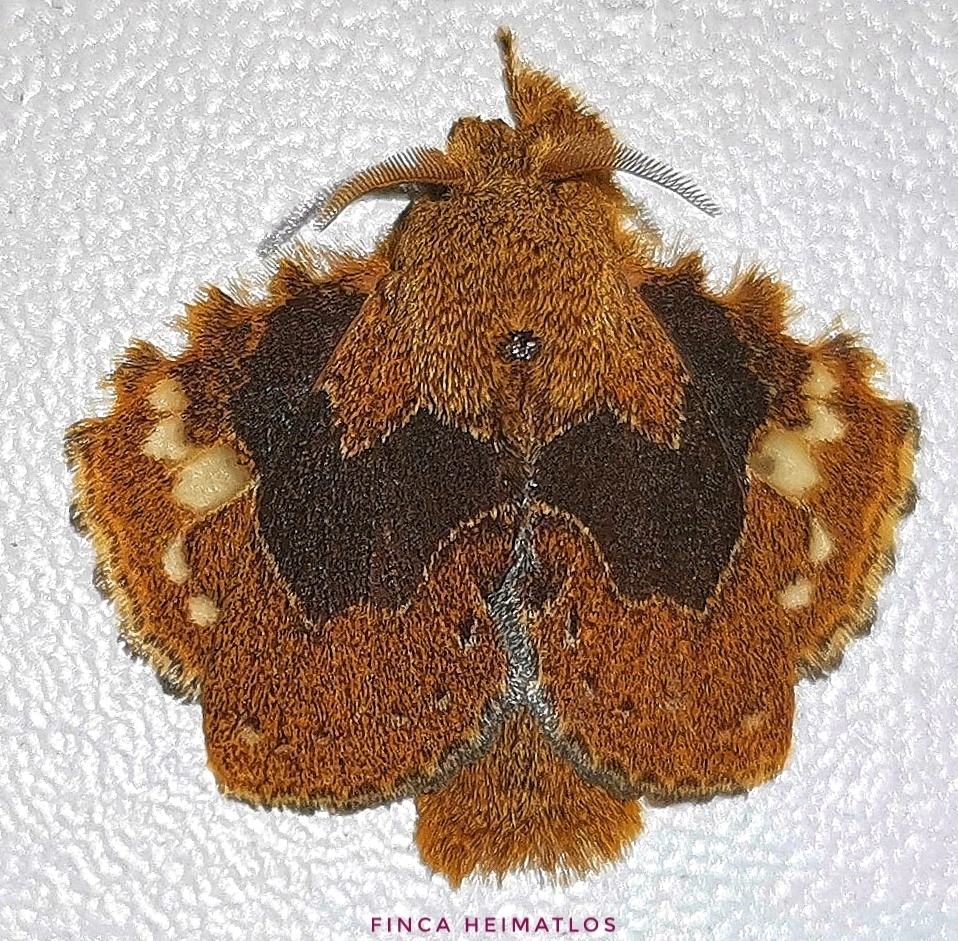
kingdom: Animalia
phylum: Arthropoda
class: Insecta
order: Lepidoptera
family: Lasiocampidae
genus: Euglyphis
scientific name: Euglyphis vitripuncta
